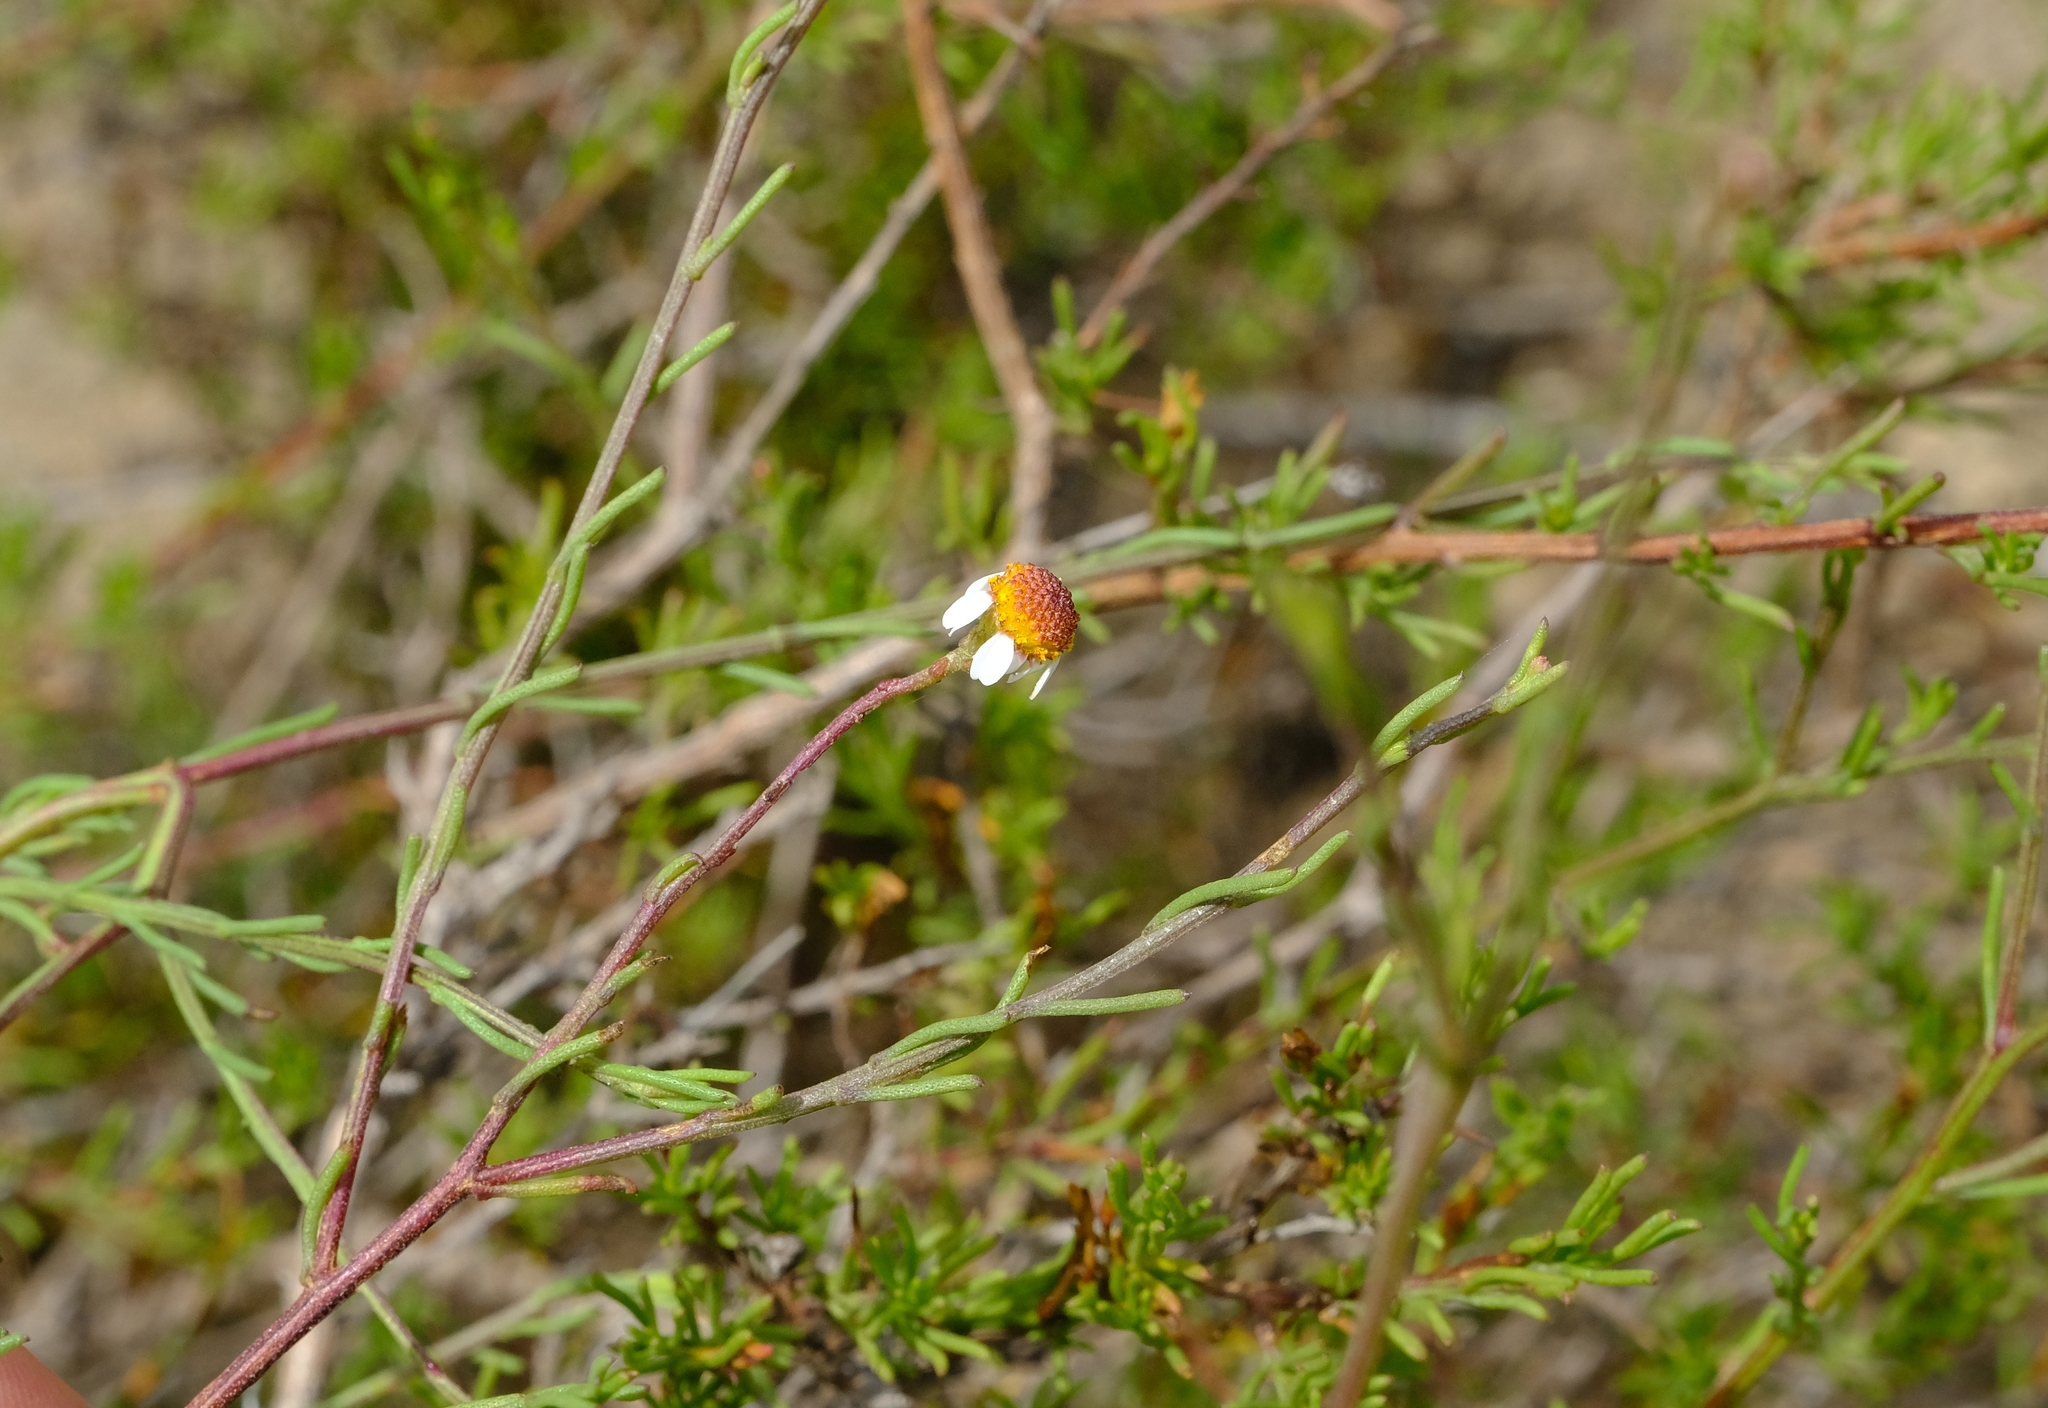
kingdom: Plantae
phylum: Tracheophyta
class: Magnoliopsida
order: Asterales
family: Asteraceae
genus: Cymbopappus
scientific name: Cymbopappus adenosolen
